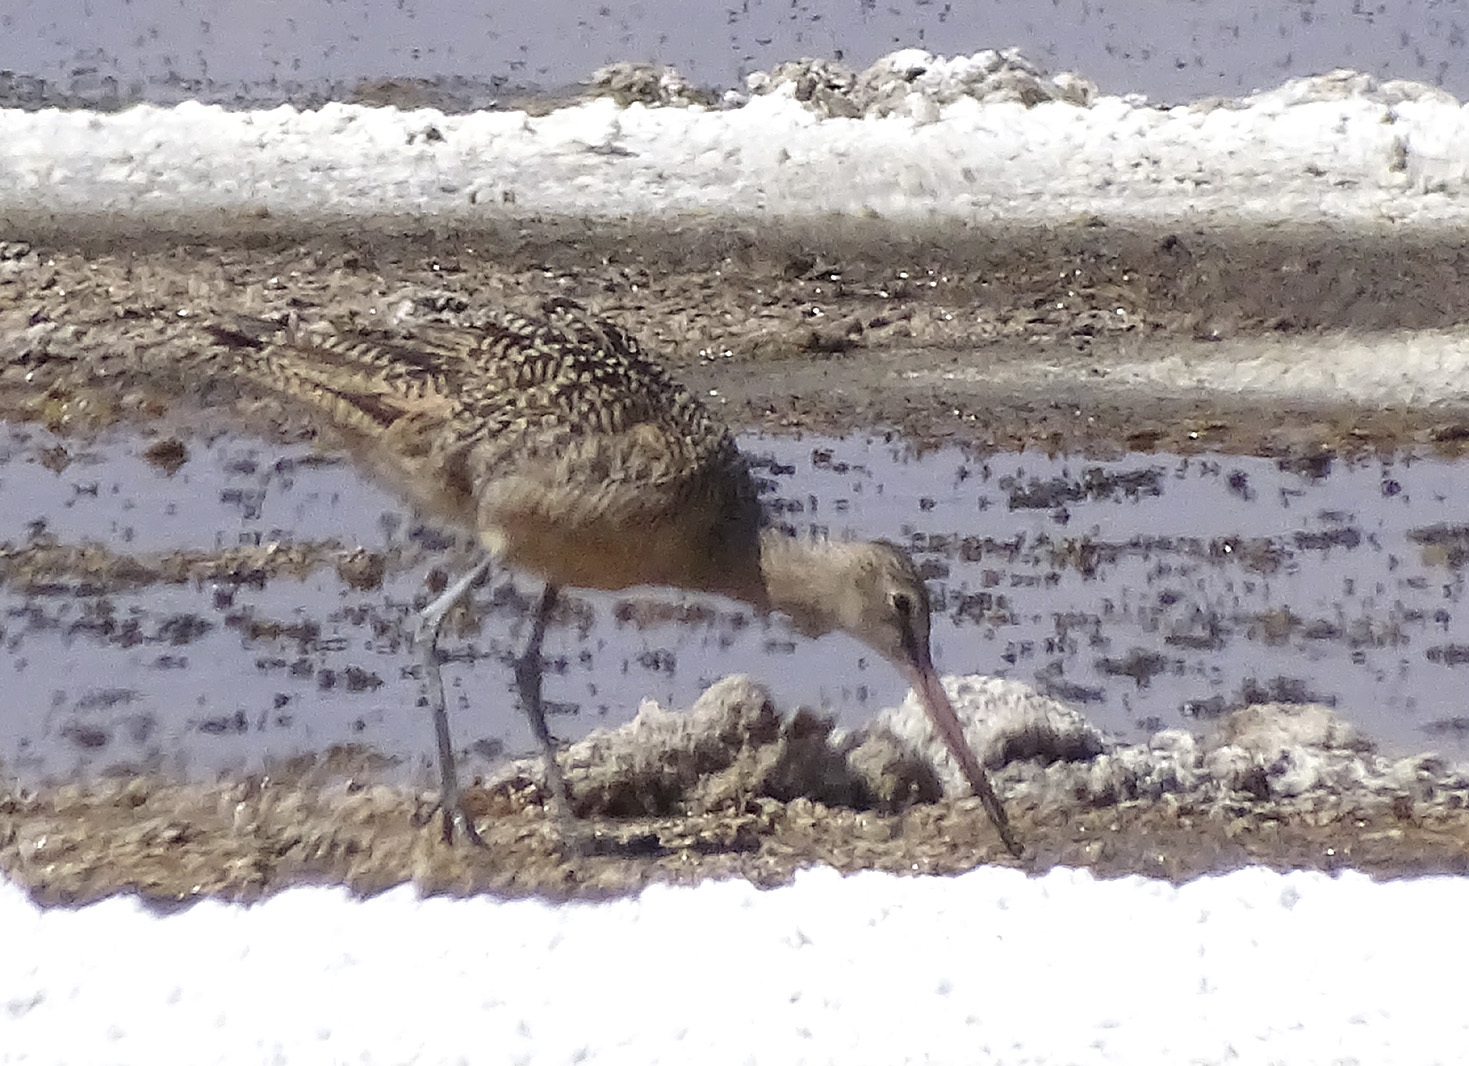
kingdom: Animalia
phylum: Chordata
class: Aves
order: Charadriiformes
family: Scolopacidae
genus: Limosa
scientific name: Limosa fedoa
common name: Marbled godwit
